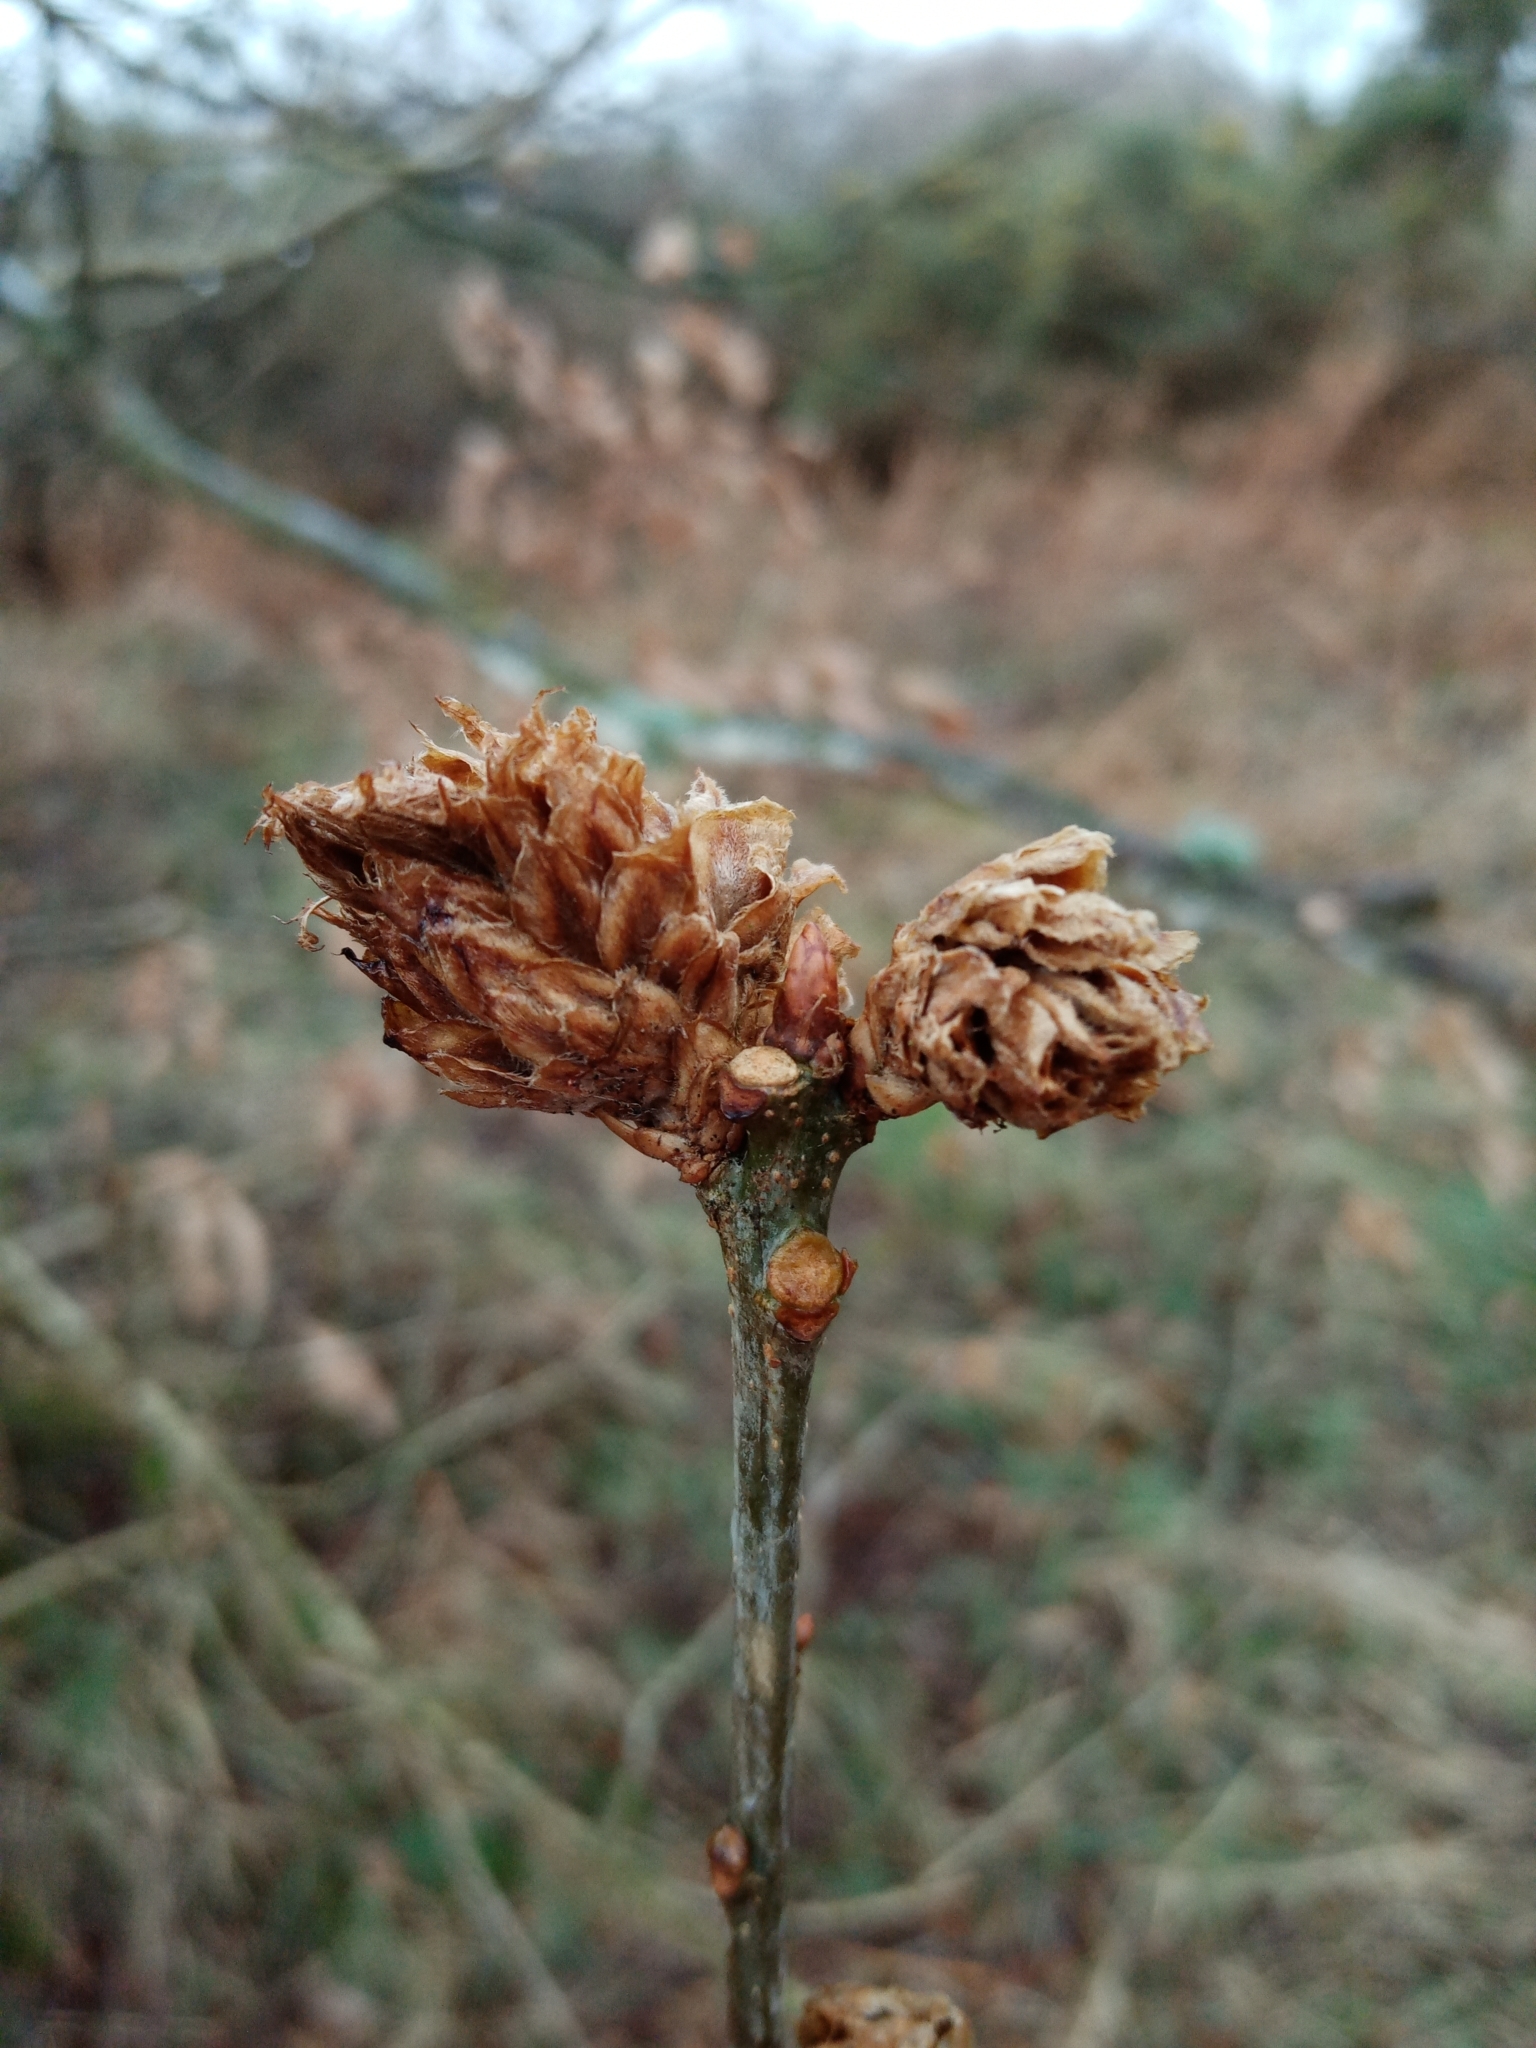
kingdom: Animalia
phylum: Arthropoda
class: Insecta
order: Hymenoptera
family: Cynipidae
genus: Andricus
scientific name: Andricus foecundatrix
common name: Artichoke gall
